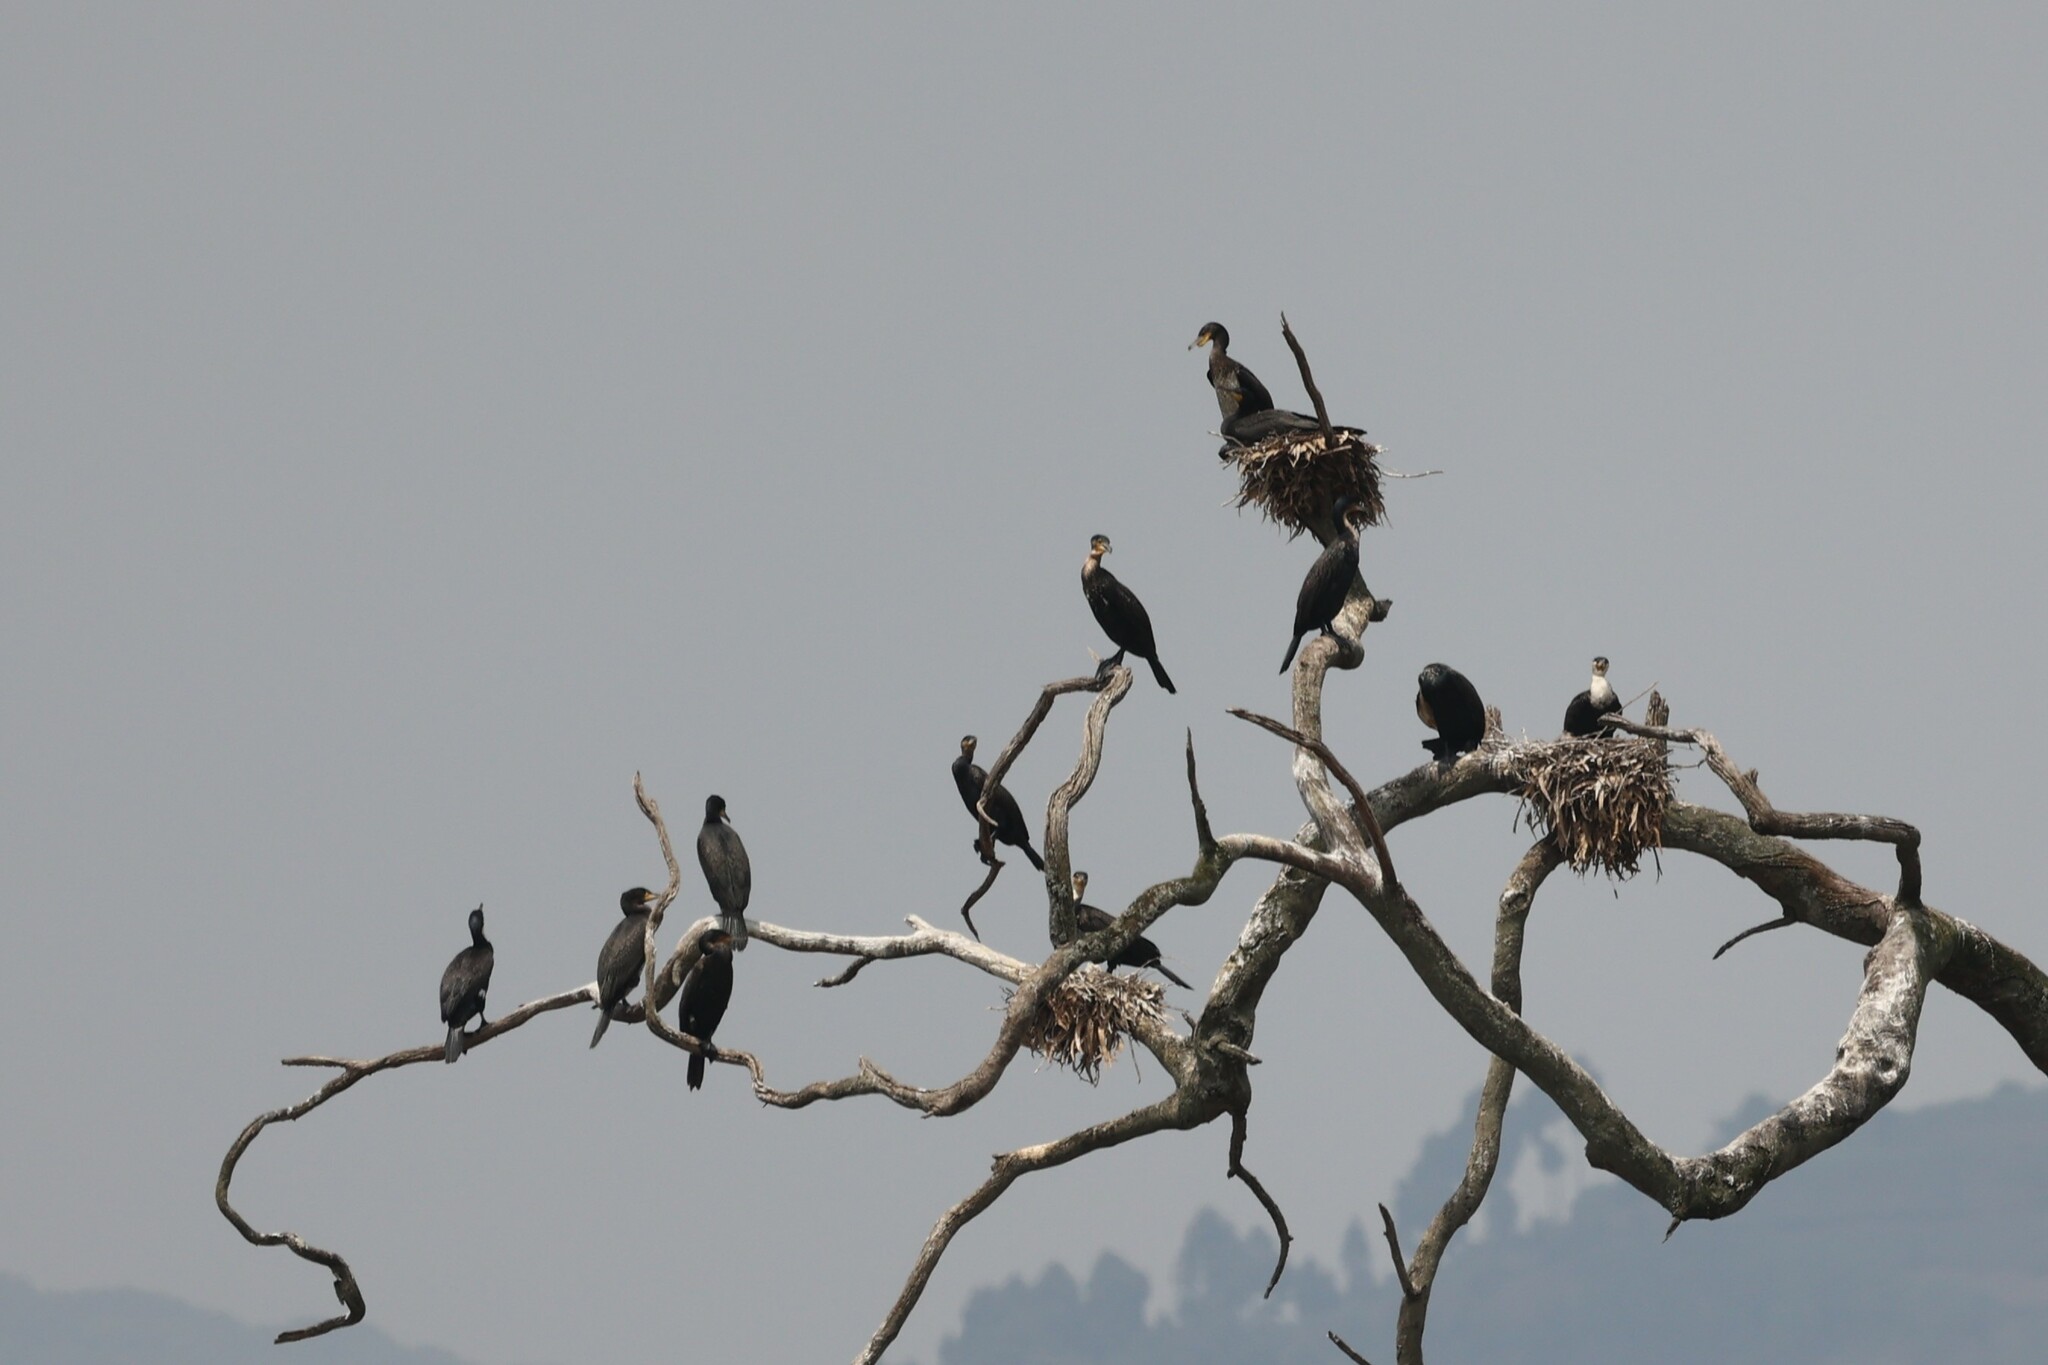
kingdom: Animalia
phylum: Chordata
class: Aves
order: Suliformes
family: Phalacrocoracidae
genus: Phalacrocorax
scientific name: Phalacrocorax carbo
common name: Great cormorant
